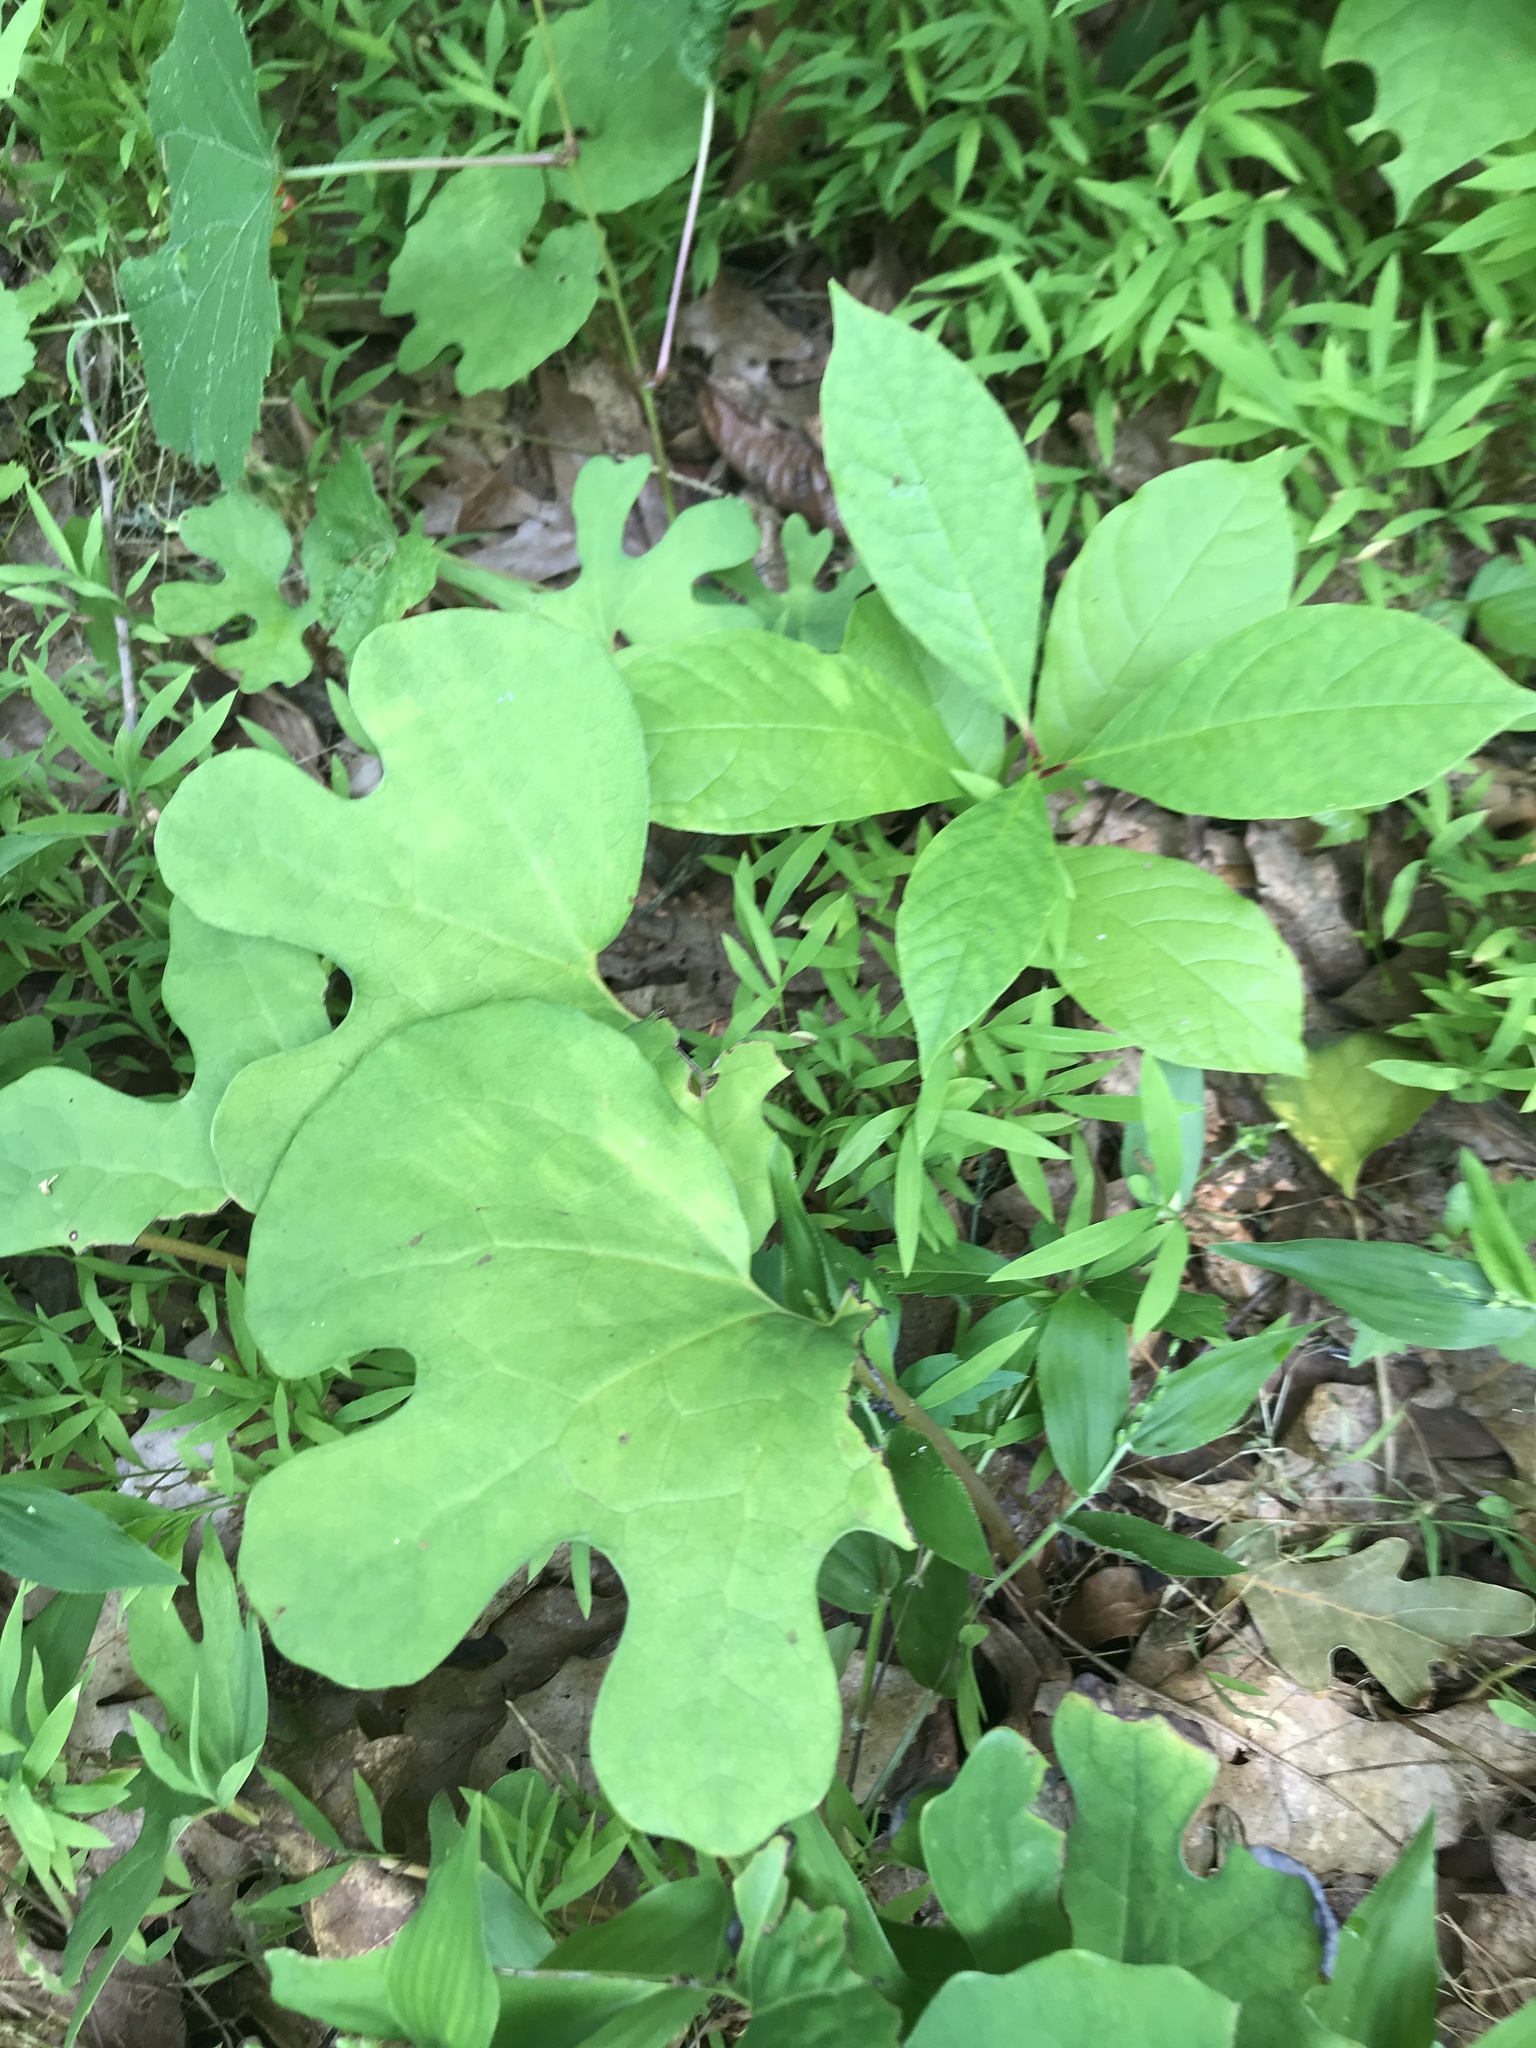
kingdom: Plantae
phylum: Tracheophyta
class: Magnoliopsida
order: Ranunculales
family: Papaveraceae
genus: Sanguinaria
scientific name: Sanguinaria canadensis
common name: Bloodroot
